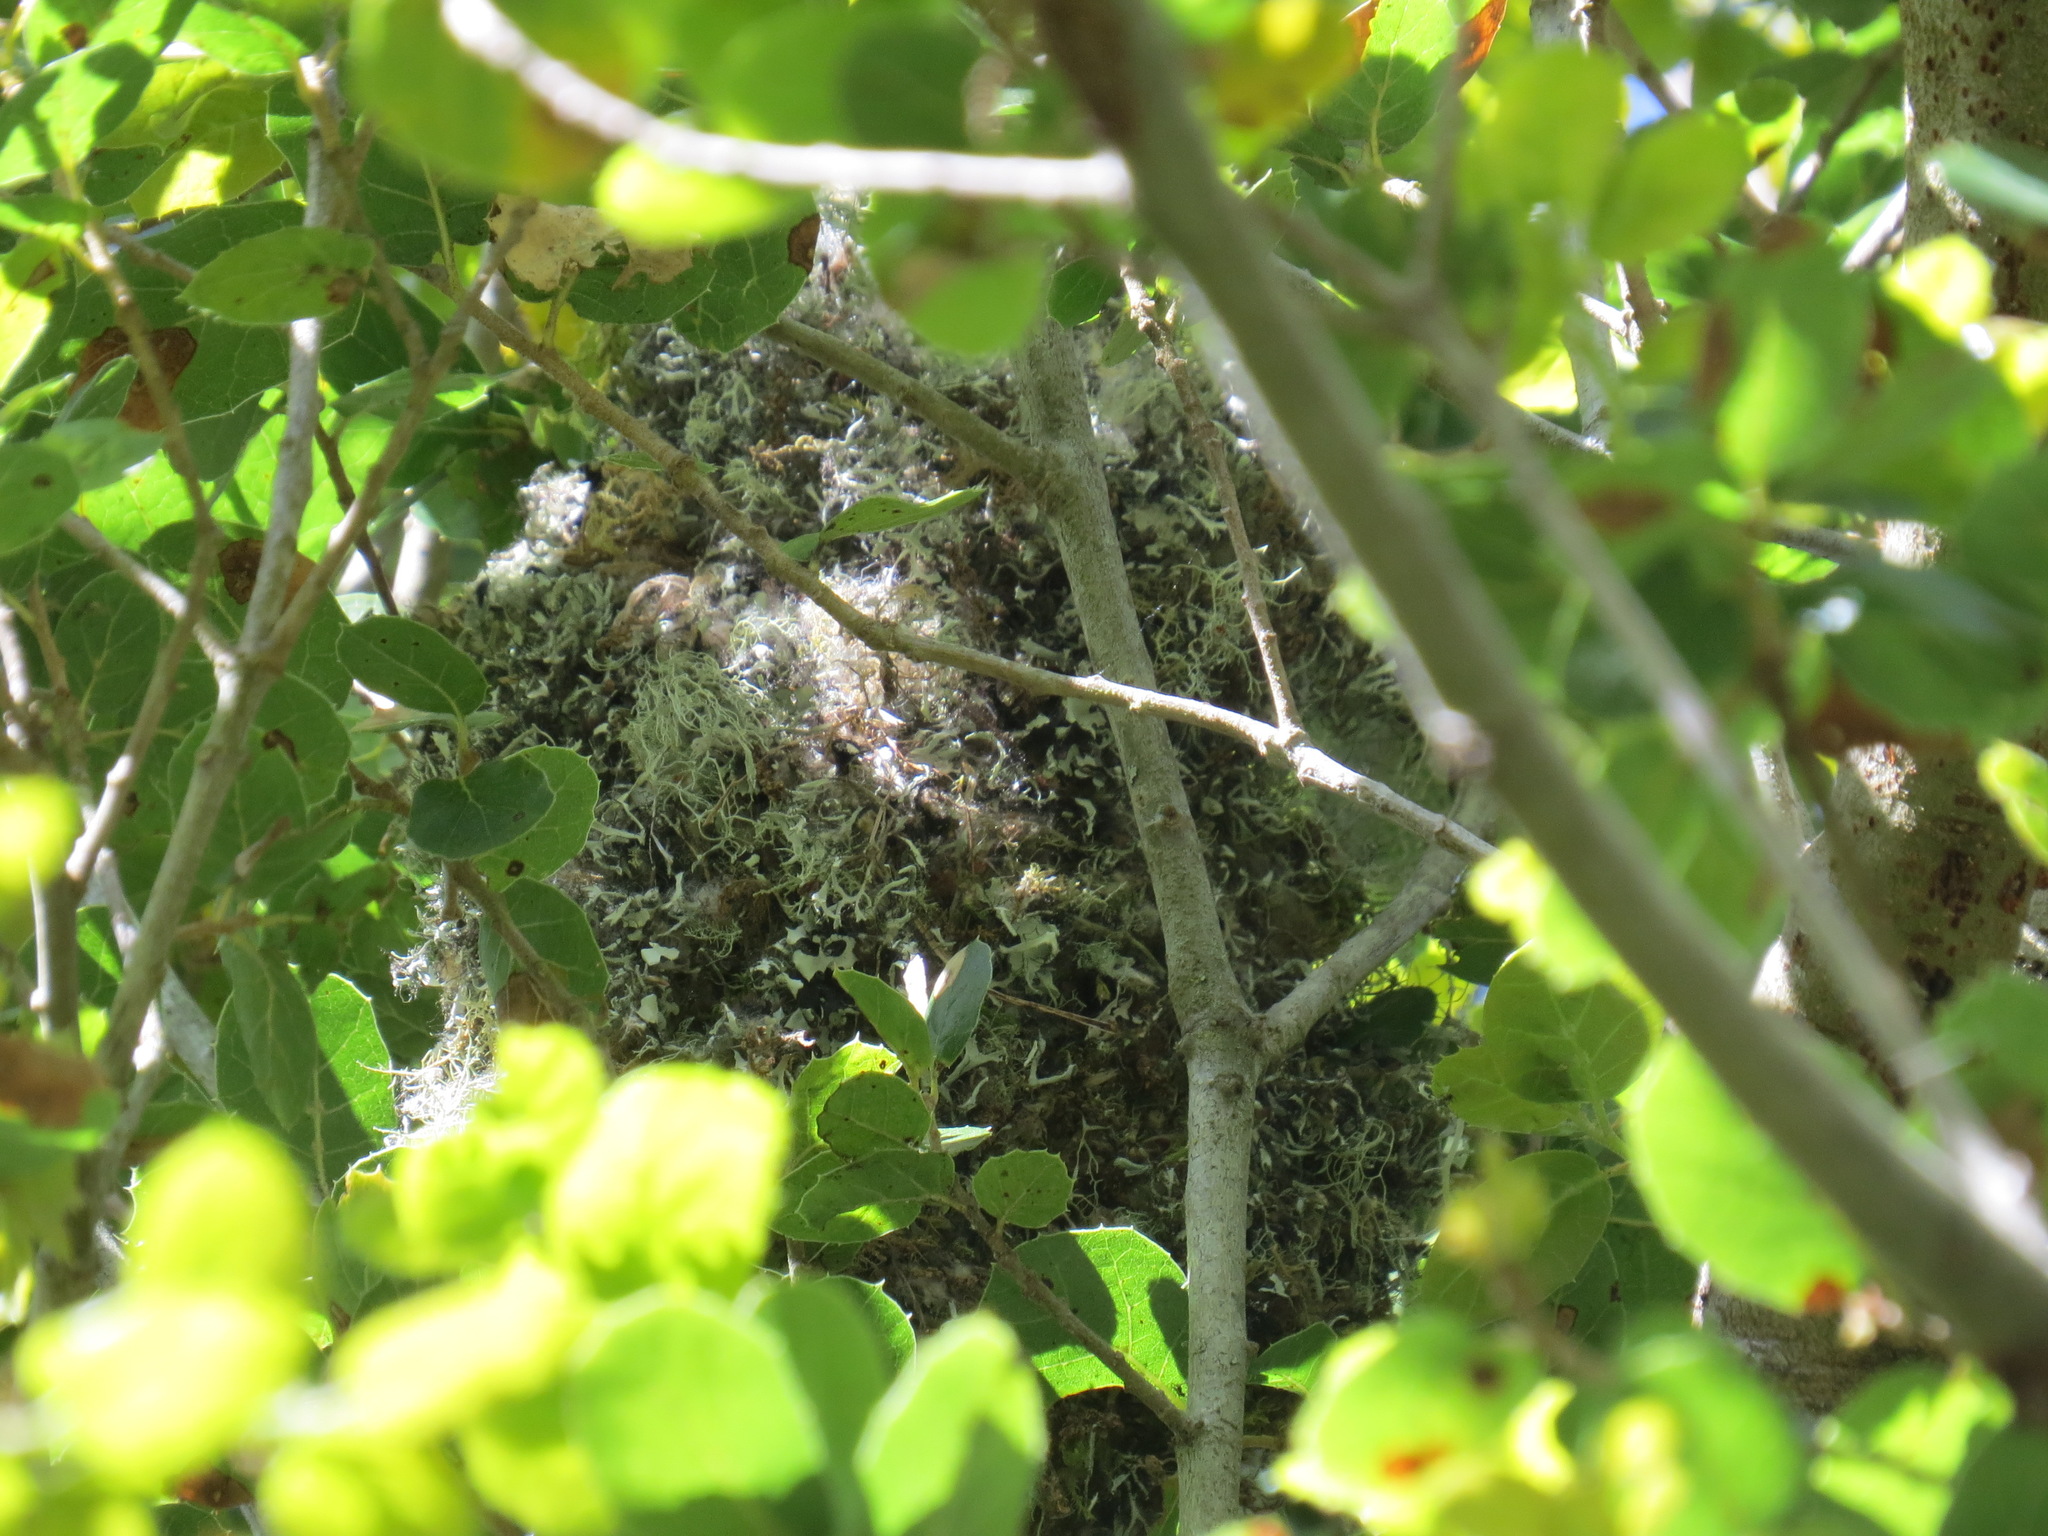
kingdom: Animalia
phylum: Chordata
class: Aves
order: Passeriformes
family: Aegithalidae
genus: Psaltriparus
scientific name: Psaltriparus minimus
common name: American bushtit
